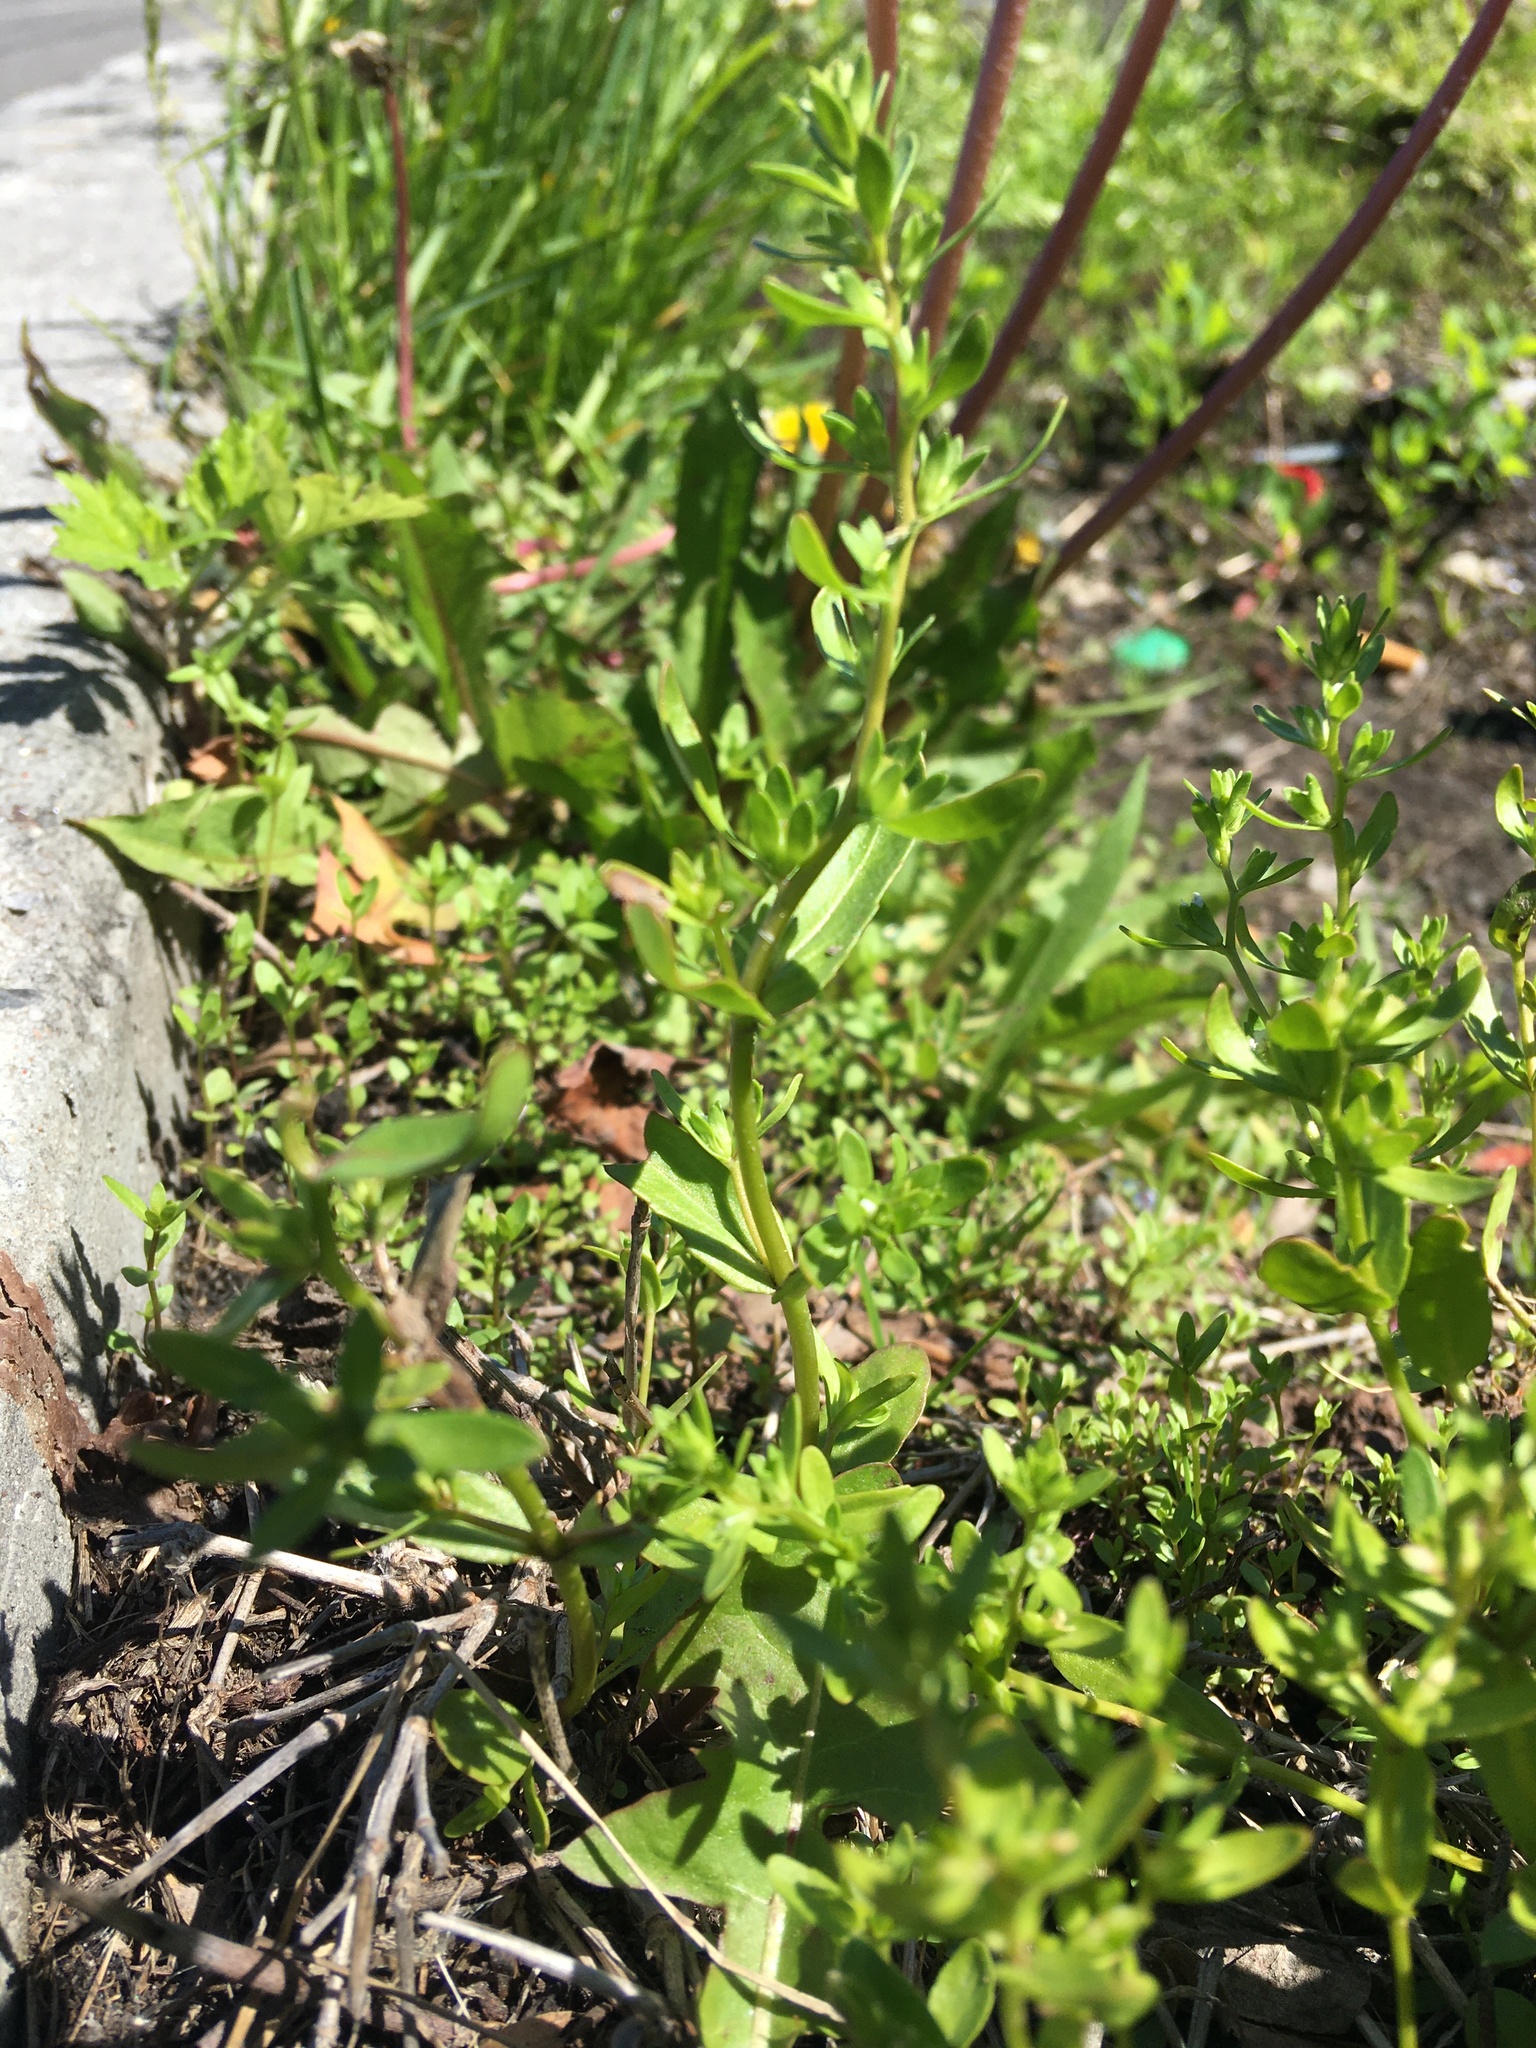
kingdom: Plantae
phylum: Tracheophyta
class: Magnoliopsida
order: Lamiales
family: Plantaginaceae
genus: Veronica
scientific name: Veronica peregrina
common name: Neckweed
